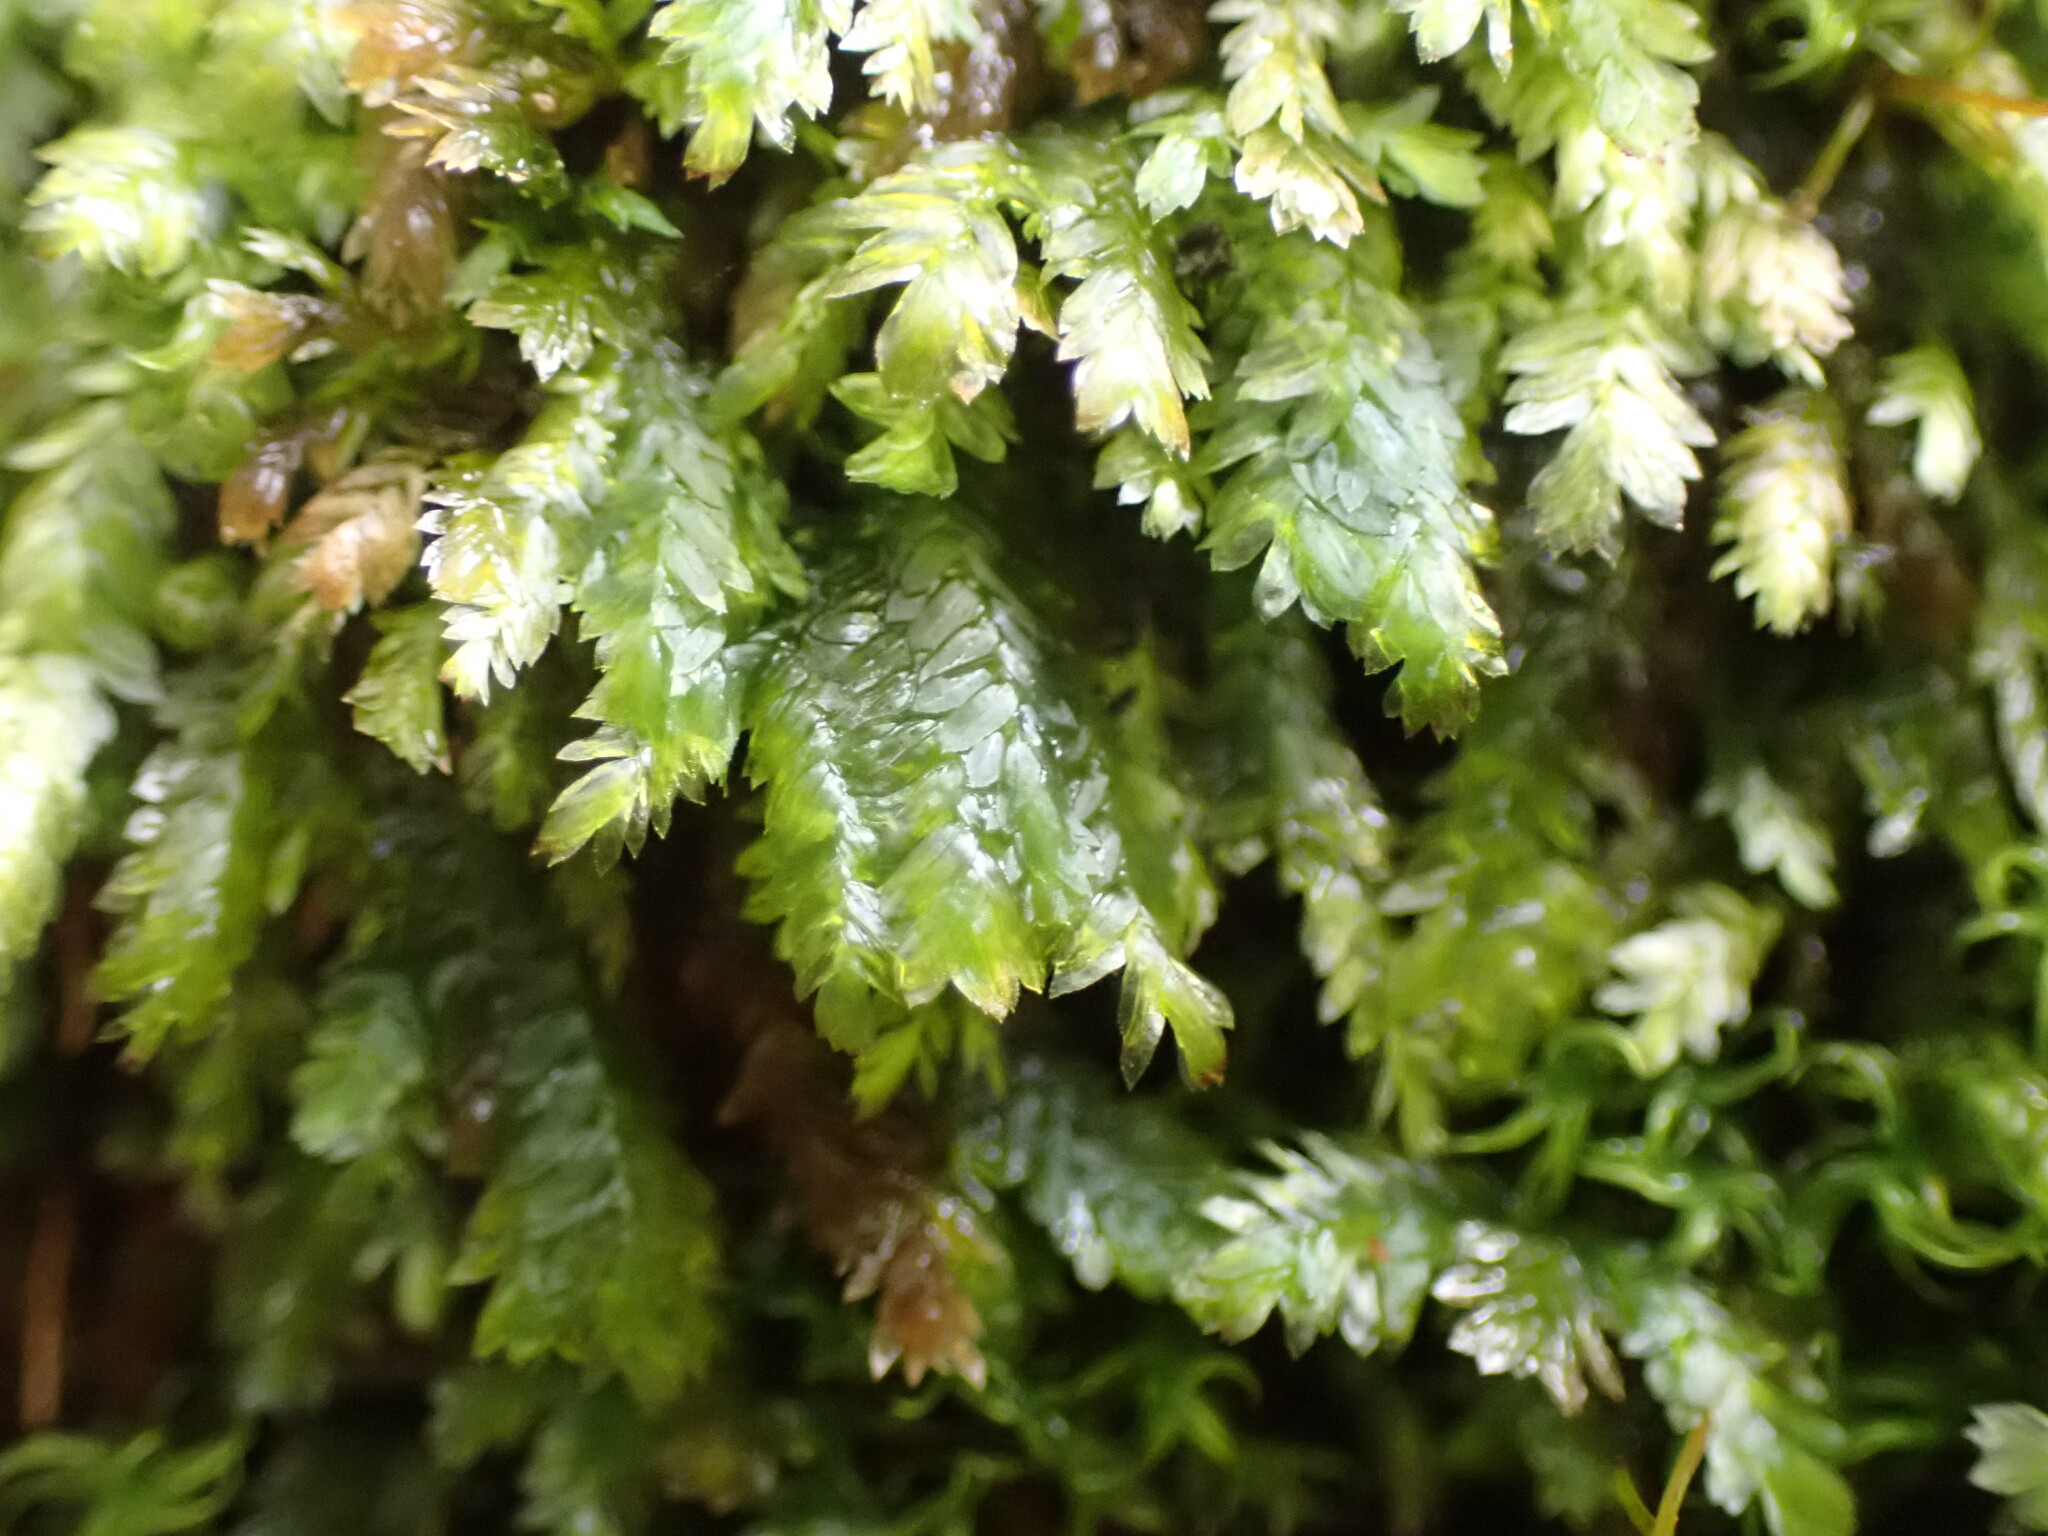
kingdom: Plantae
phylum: Bryophyta
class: Bryopsida
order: Hypnales
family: Neckeraceae
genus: Dannorrisia
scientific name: Dannorrisia bigelovii
